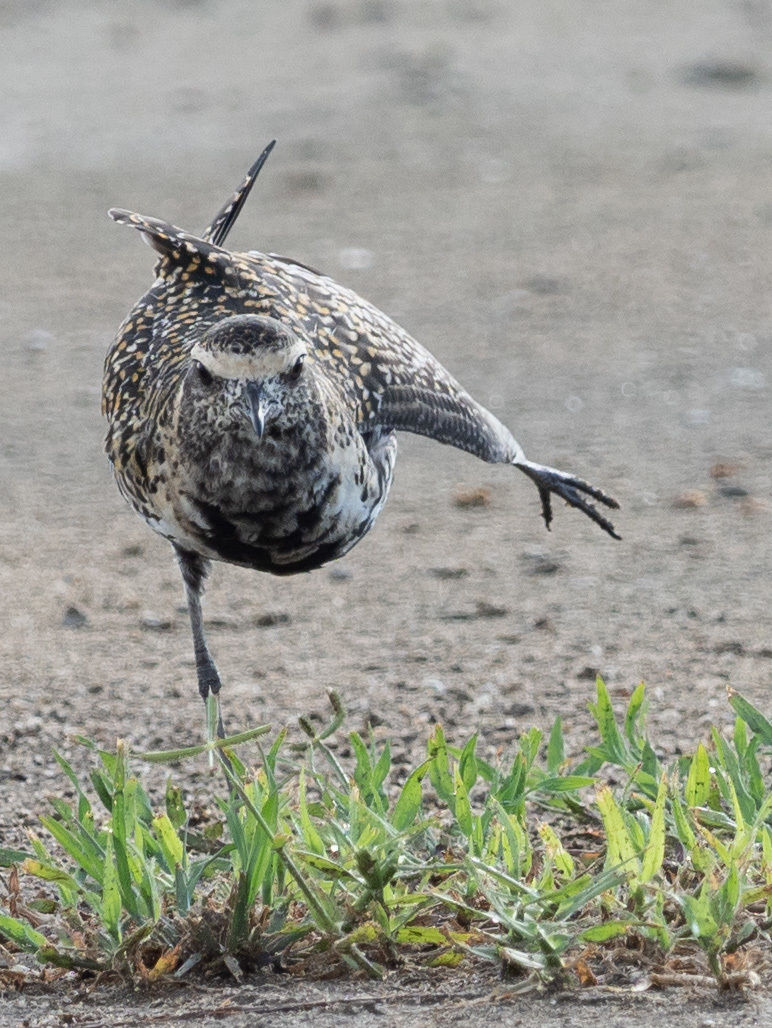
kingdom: Animalia
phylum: Chordata
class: Aves
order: Charadriiformes
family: Charadriidae
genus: Pluvialis
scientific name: Pluvialis fulva
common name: Pacific golden plover
